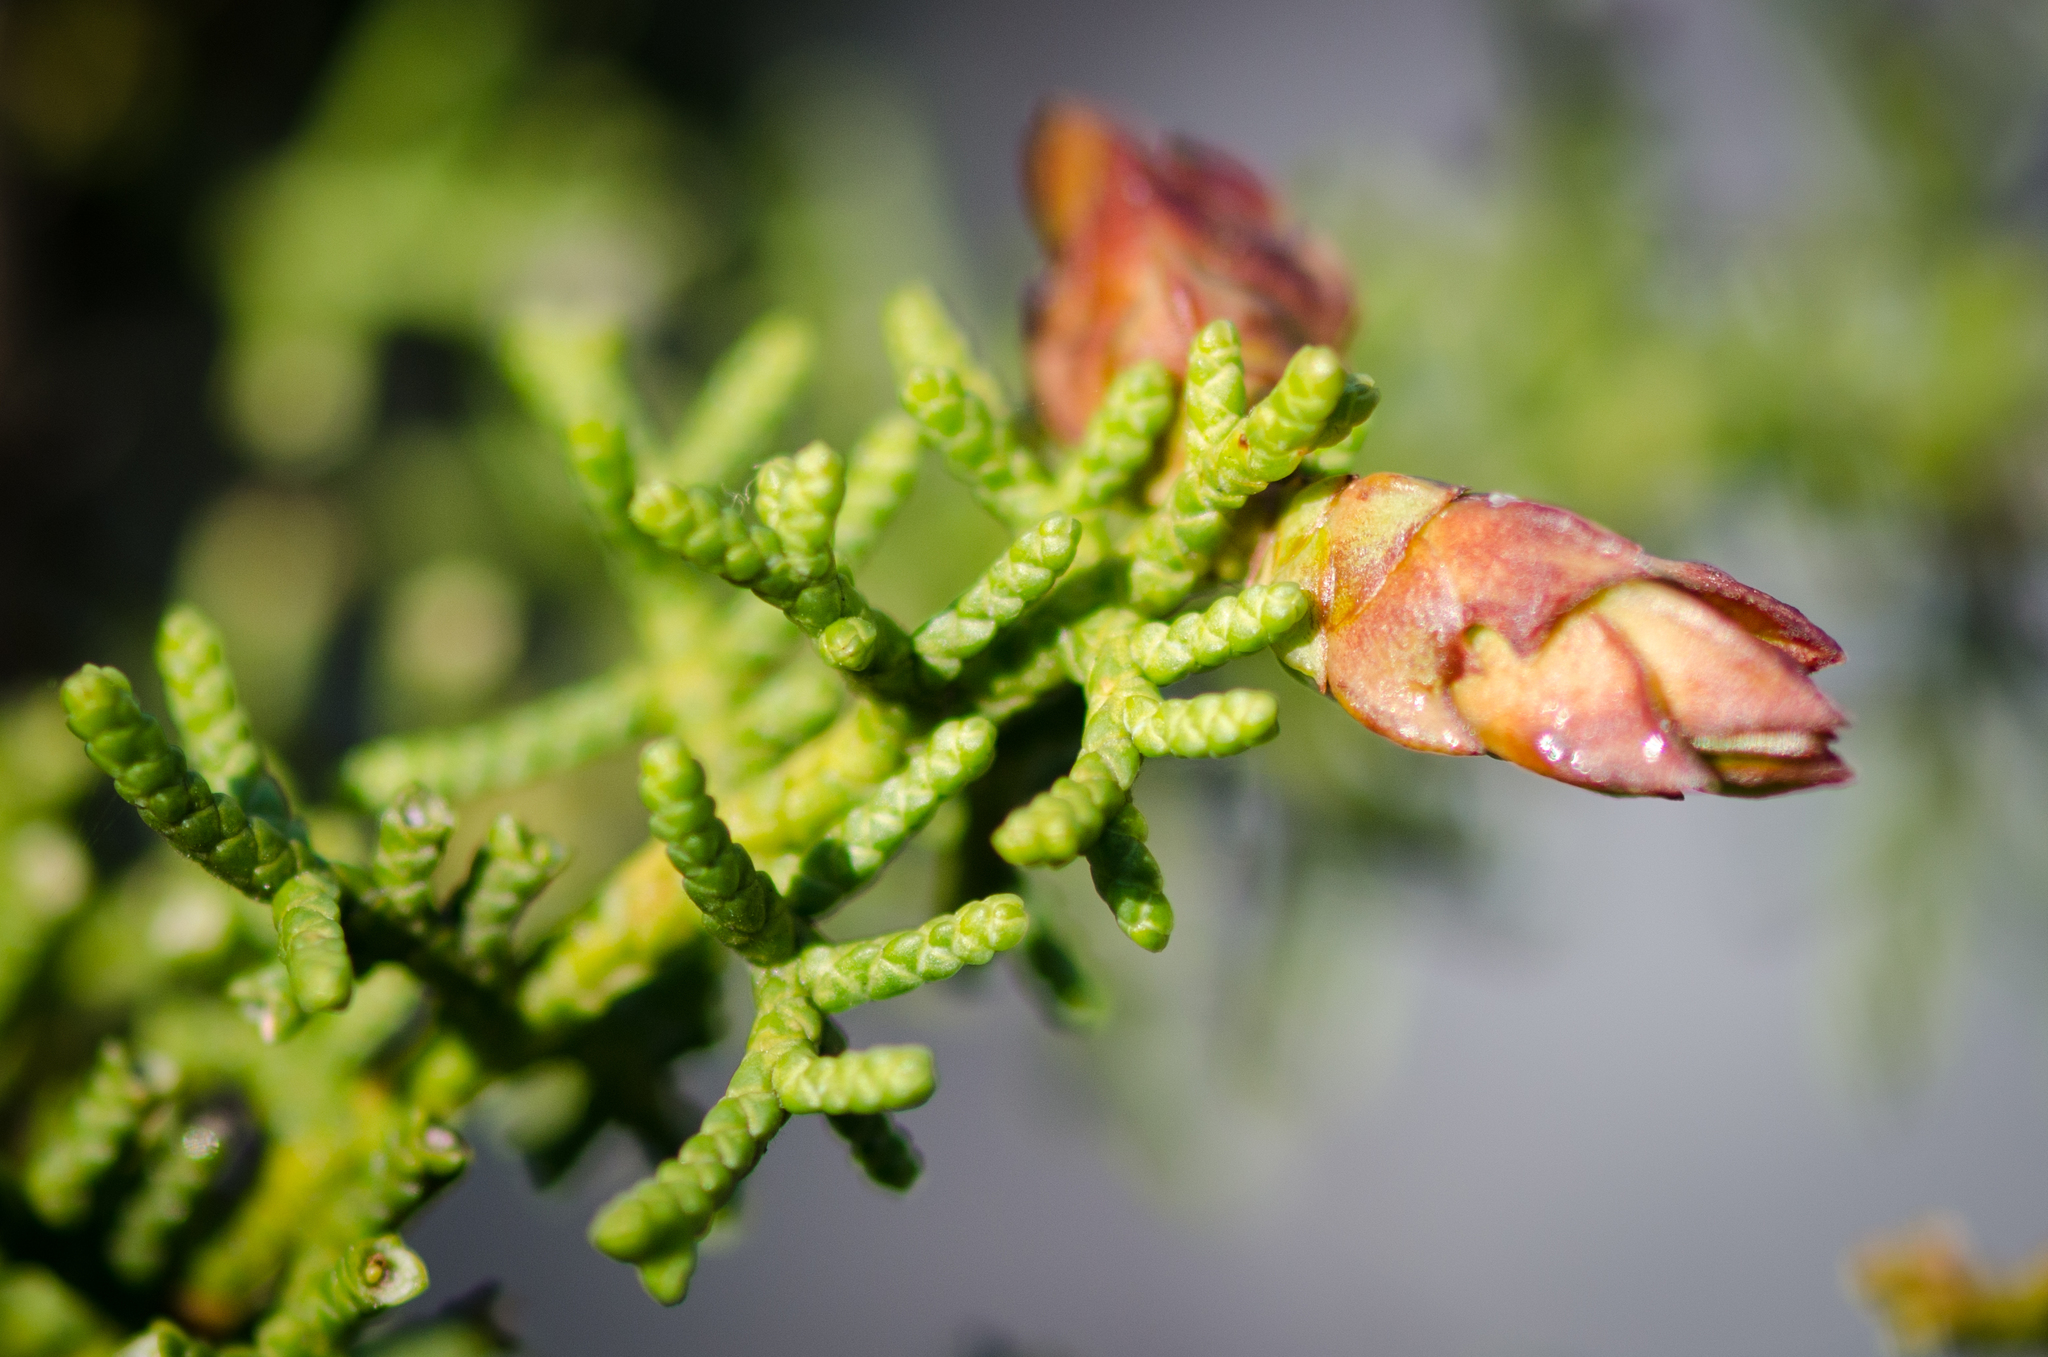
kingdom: Animalia
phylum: Arthropoda
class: Insecta
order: Diptera
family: Cecidomyiidae
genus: Oligotrophus
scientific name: Oligotrophus cupressi
